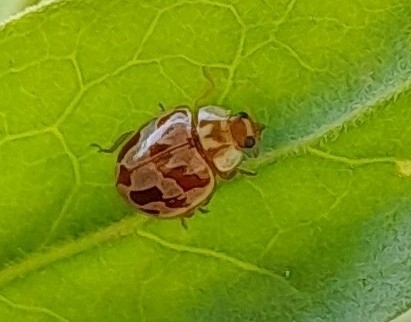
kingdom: Animalia
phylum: Arthropoda
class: Insecta
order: Coleoptera
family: Coccinellidae
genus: Myrrha
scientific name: Myrrha octodecimguttata
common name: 18-spot ladybird
